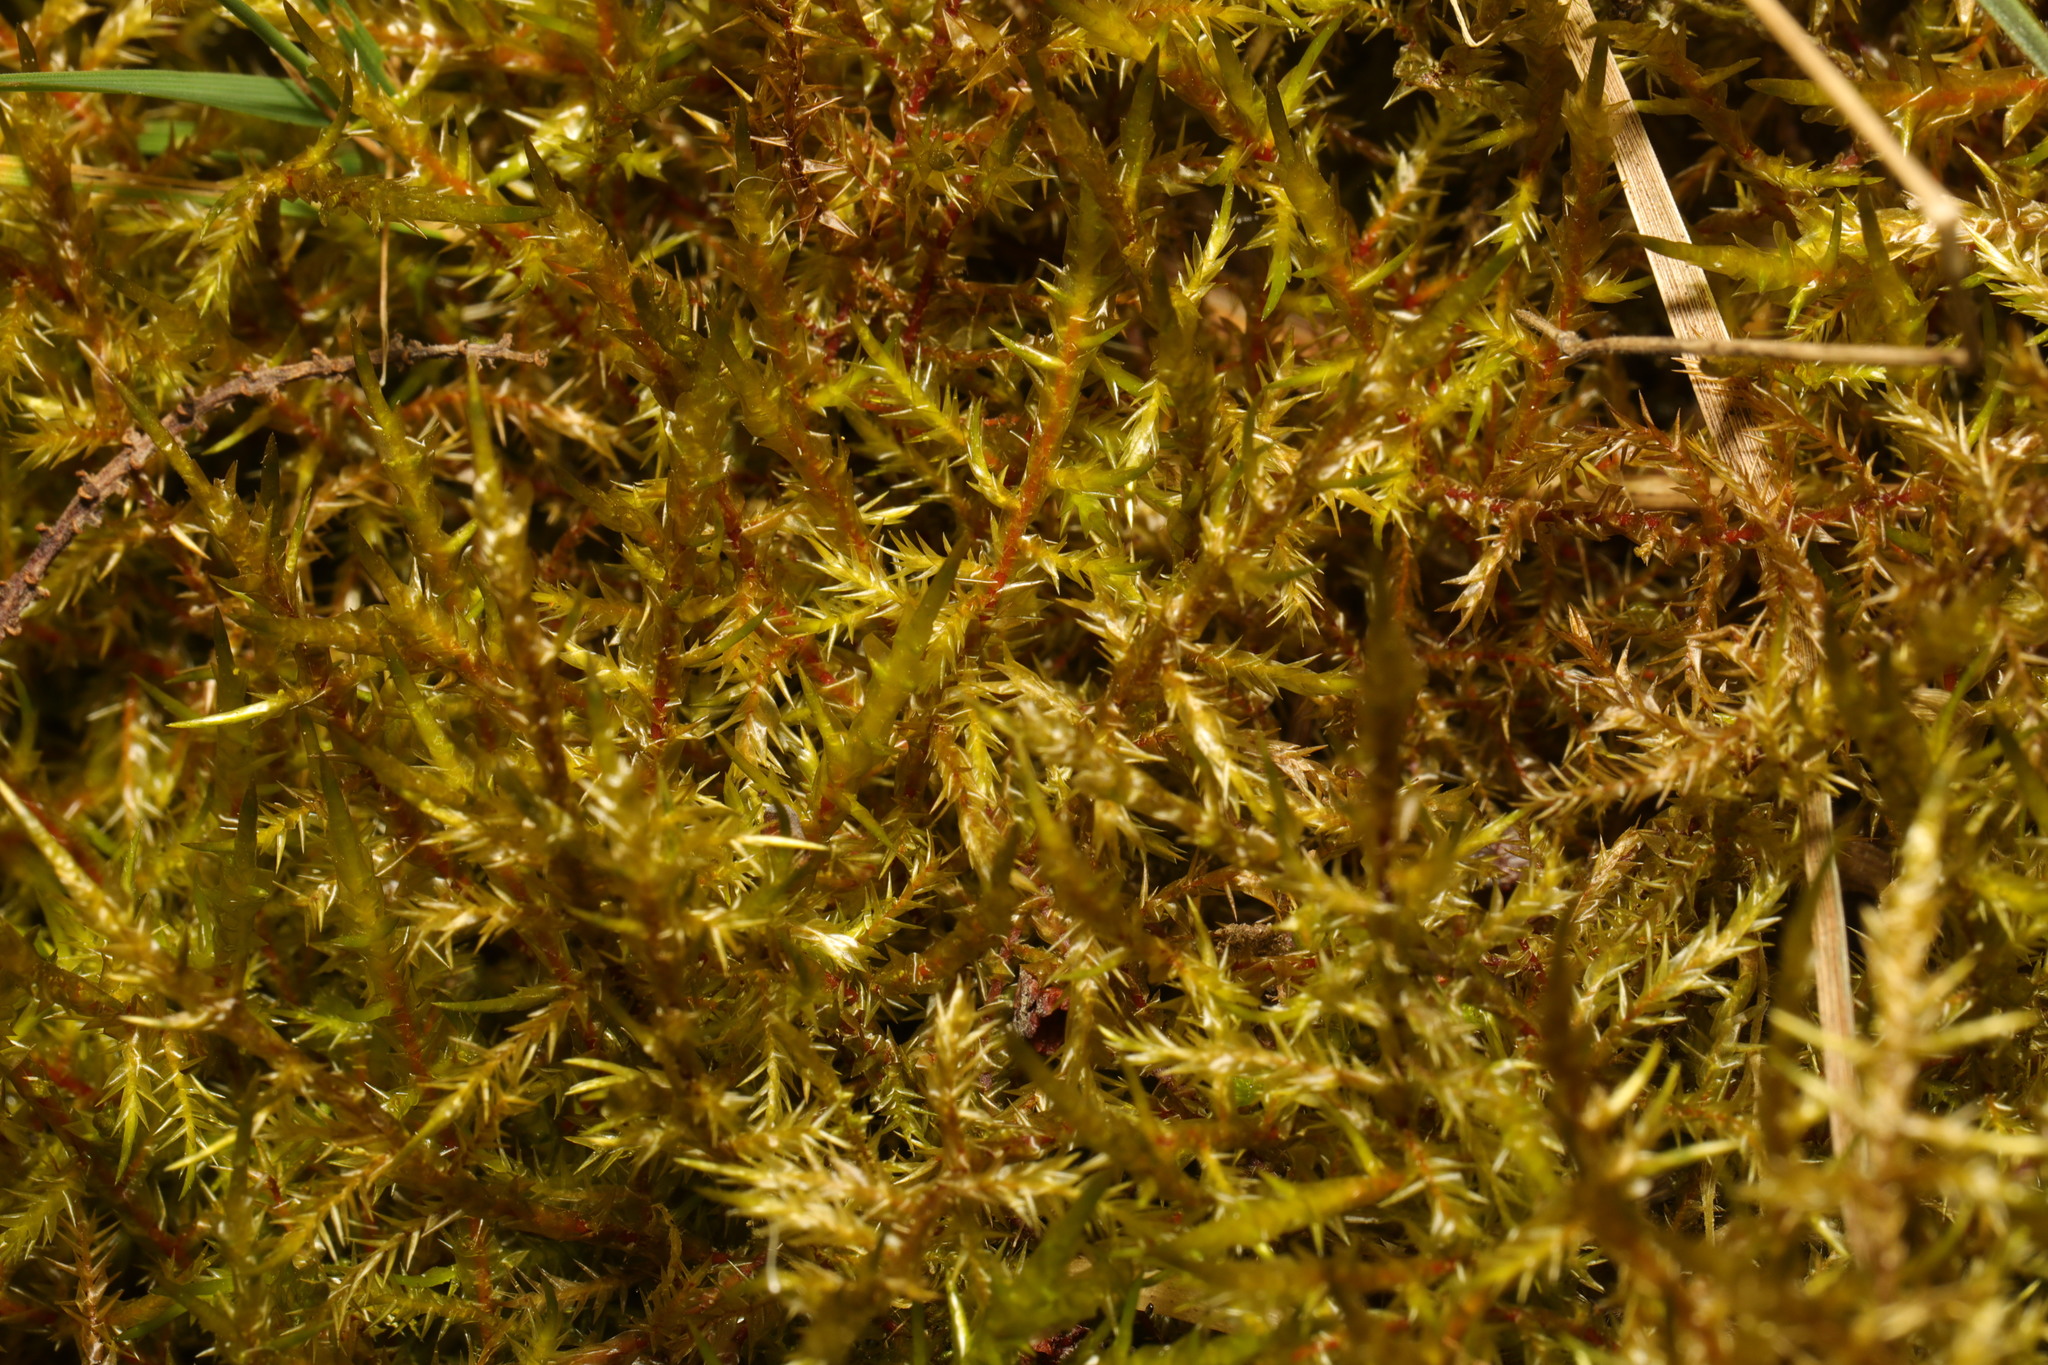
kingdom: Plantae
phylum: Bryophyta
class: Bryopsida
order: Hypnales
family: Pylaisiaceae
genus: Calliergonella
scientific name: Calliergonella cuspidata
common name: Common large wetland moss
